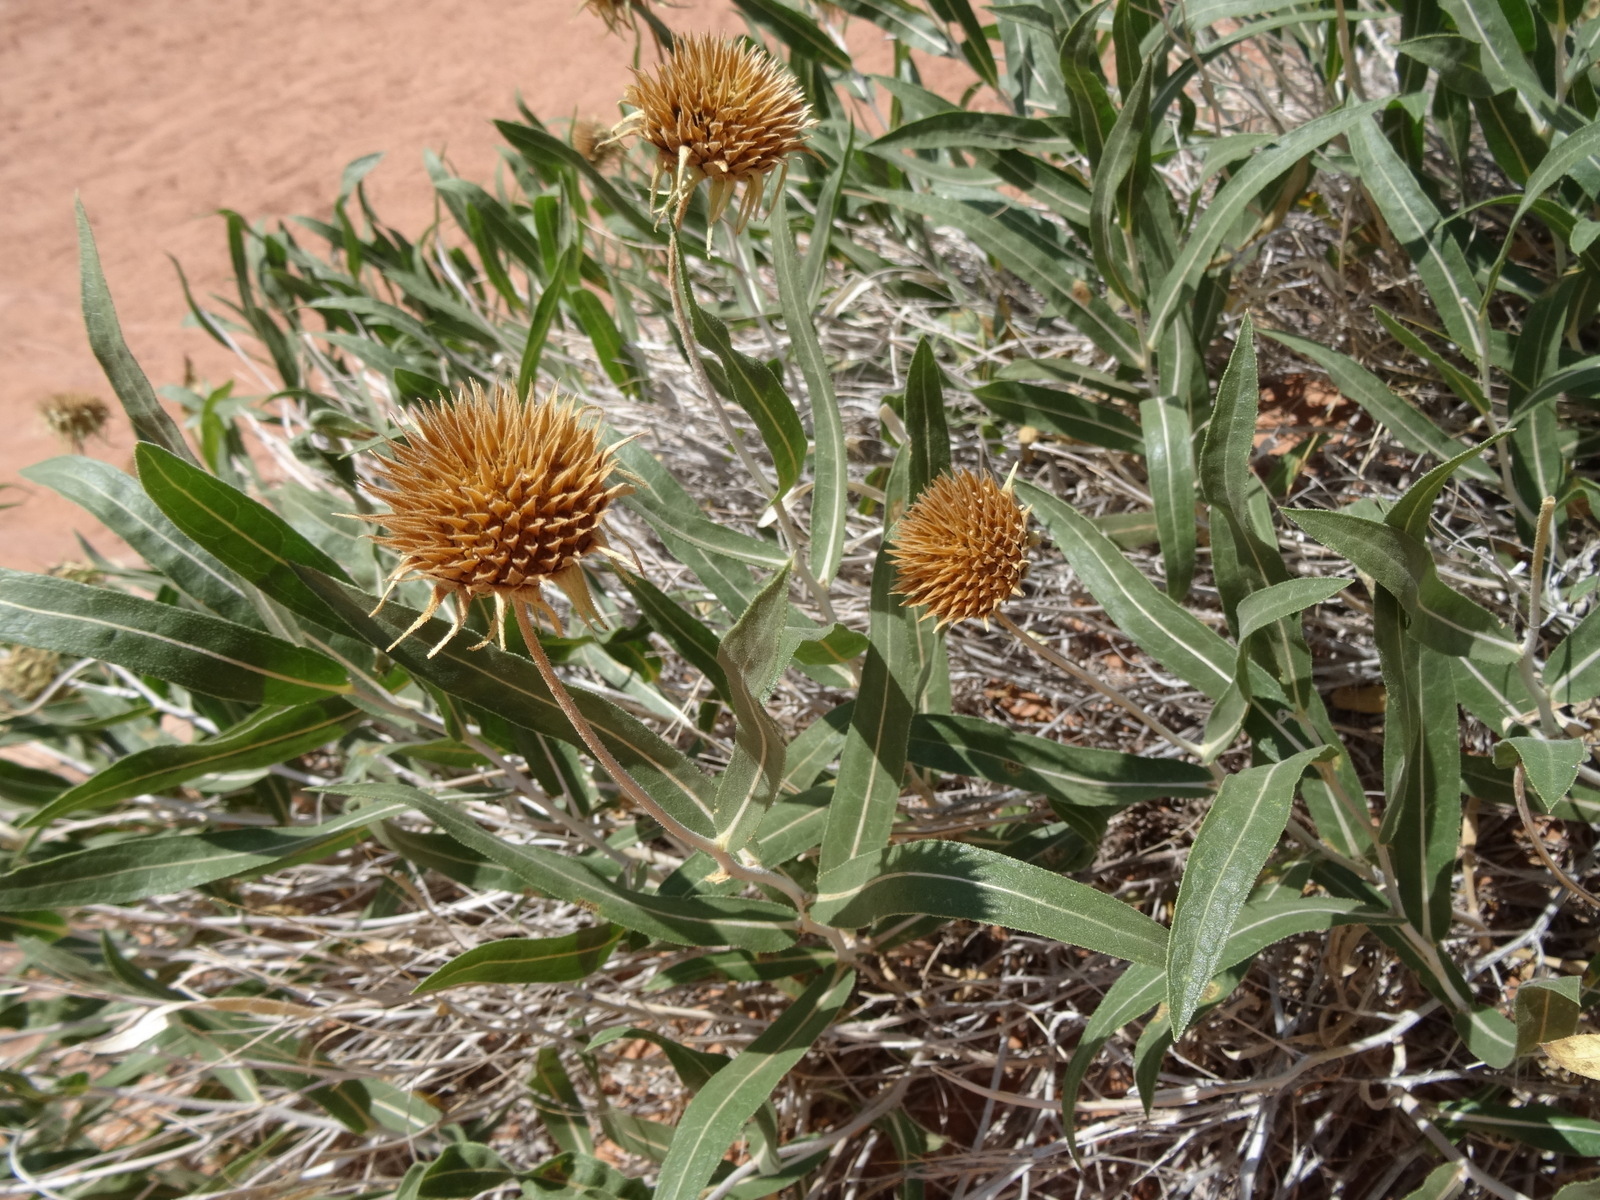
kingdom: Plantae
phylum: Tracheophyta
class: Magnoliopsida
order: Asterales
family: Asteraceae
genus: Scabrethia
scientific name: Scabrethia scabra
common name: Rough mules's-ears
